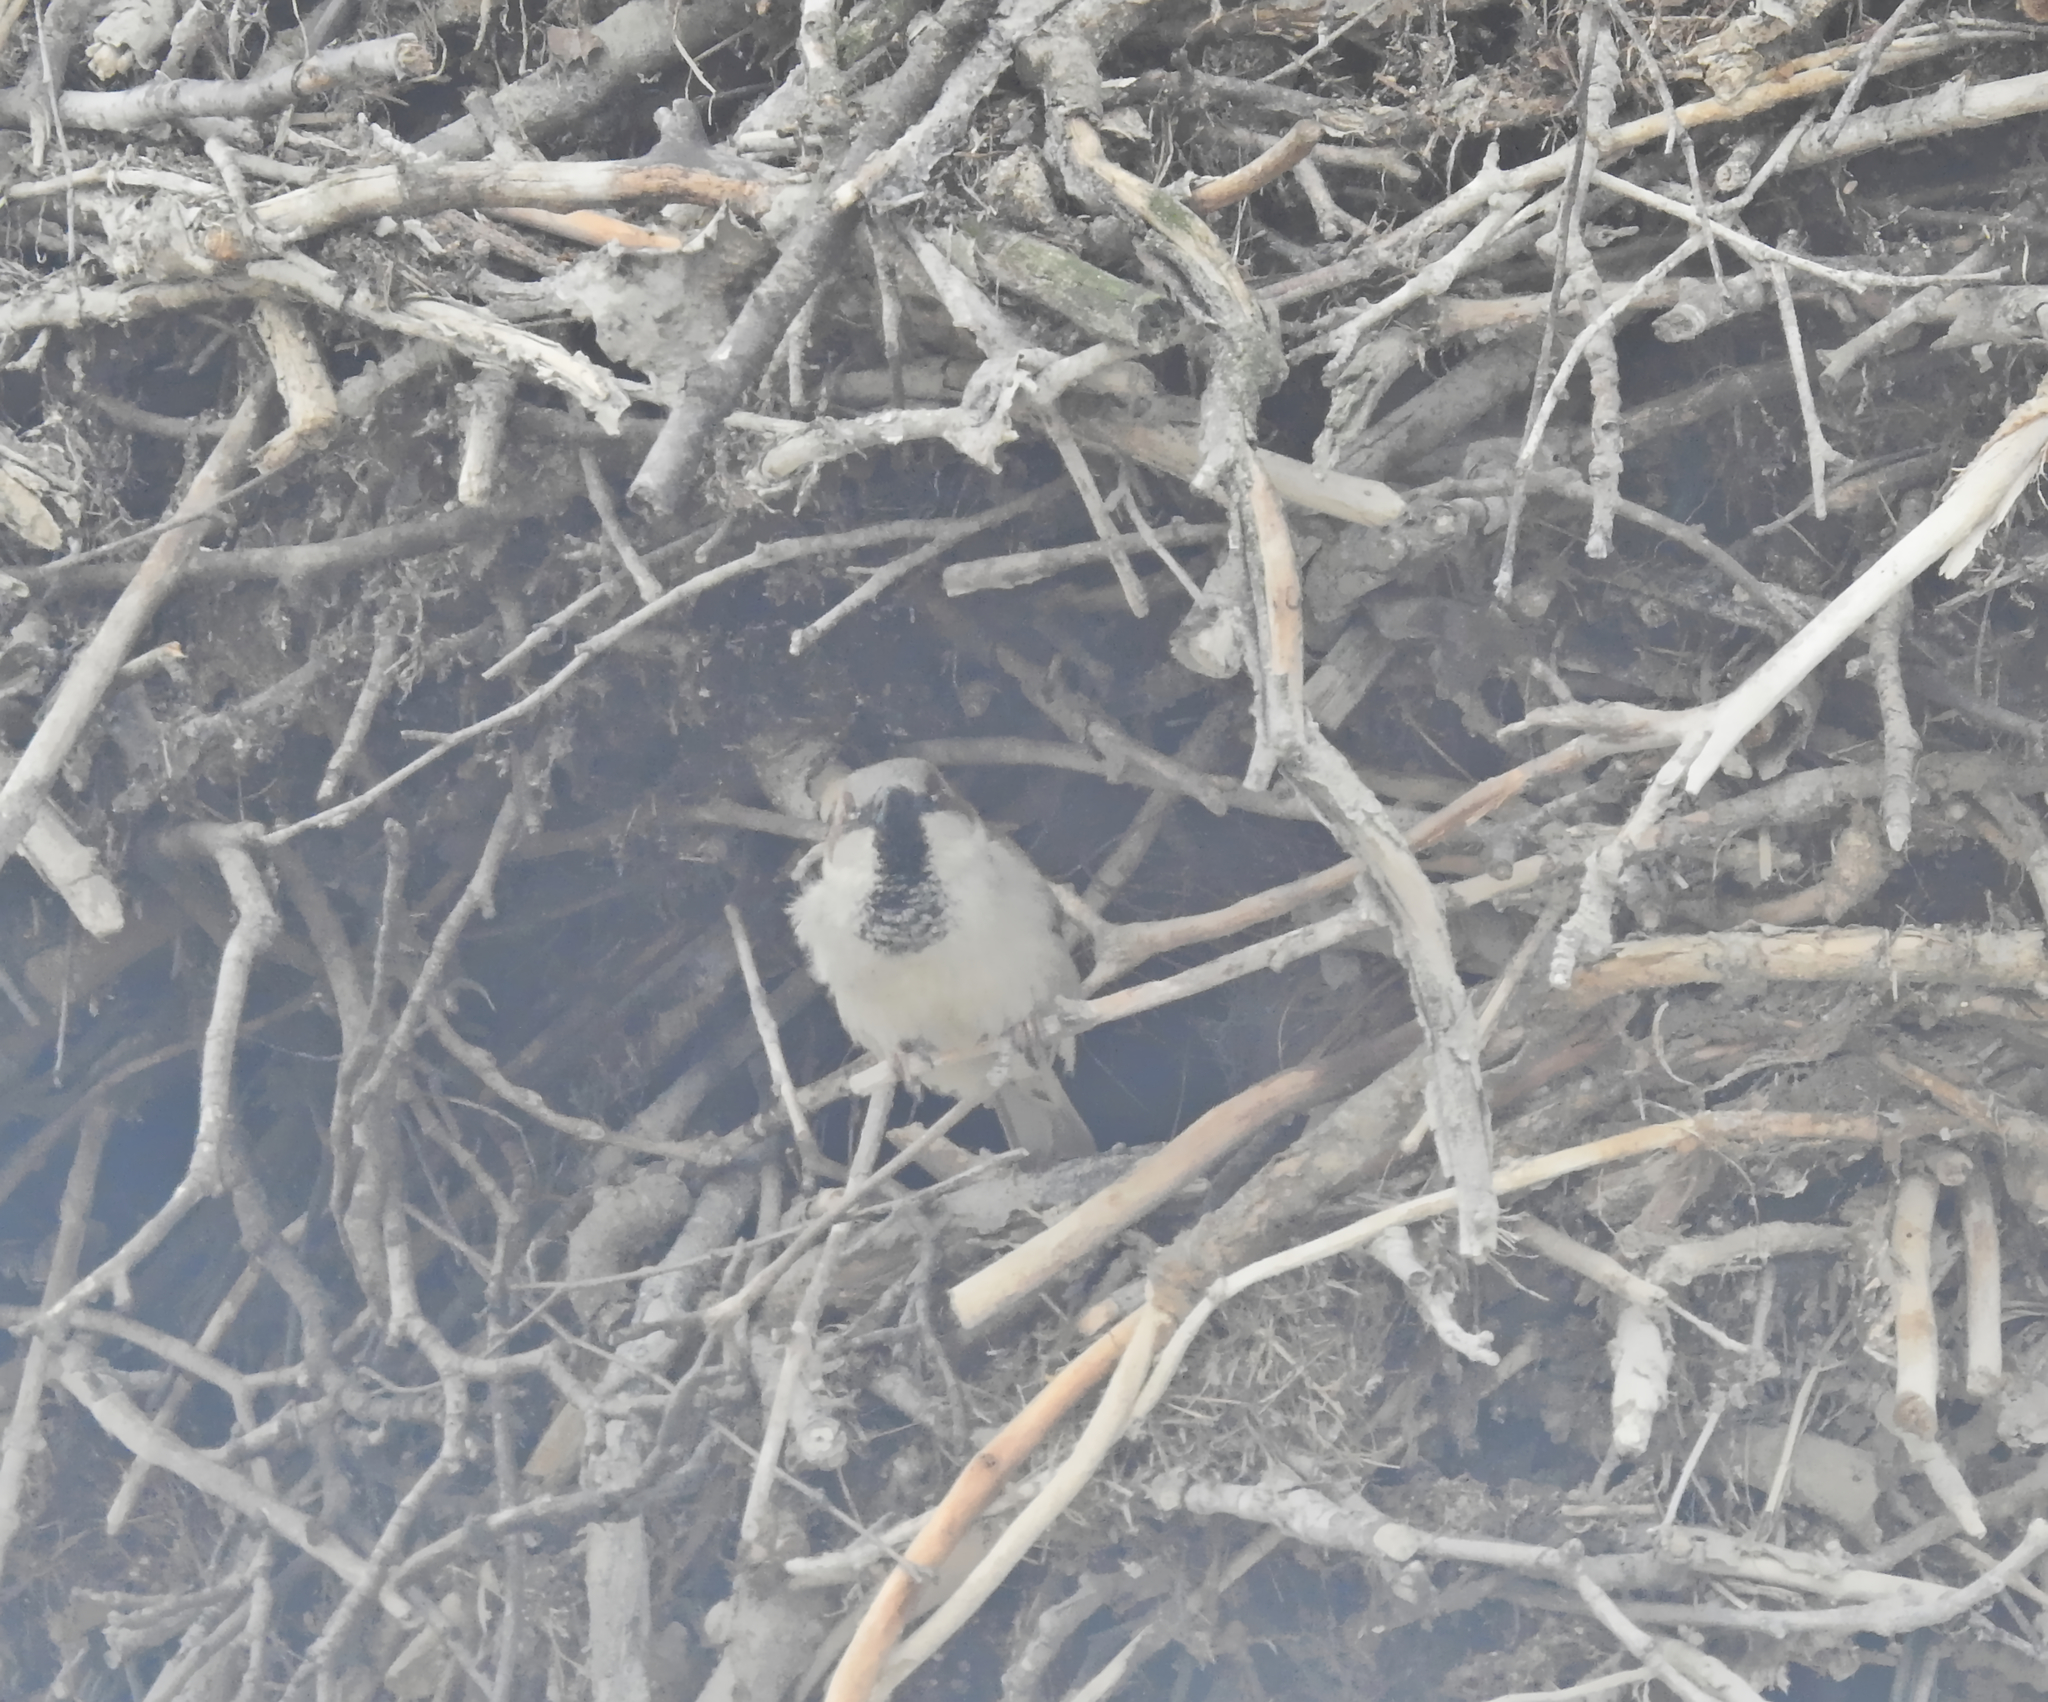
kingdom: Animalia
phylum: Chordata
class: Aves
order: Passeriformes
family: Passeridae
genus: Passer
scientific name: Passer domesticus
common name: House sparrow
